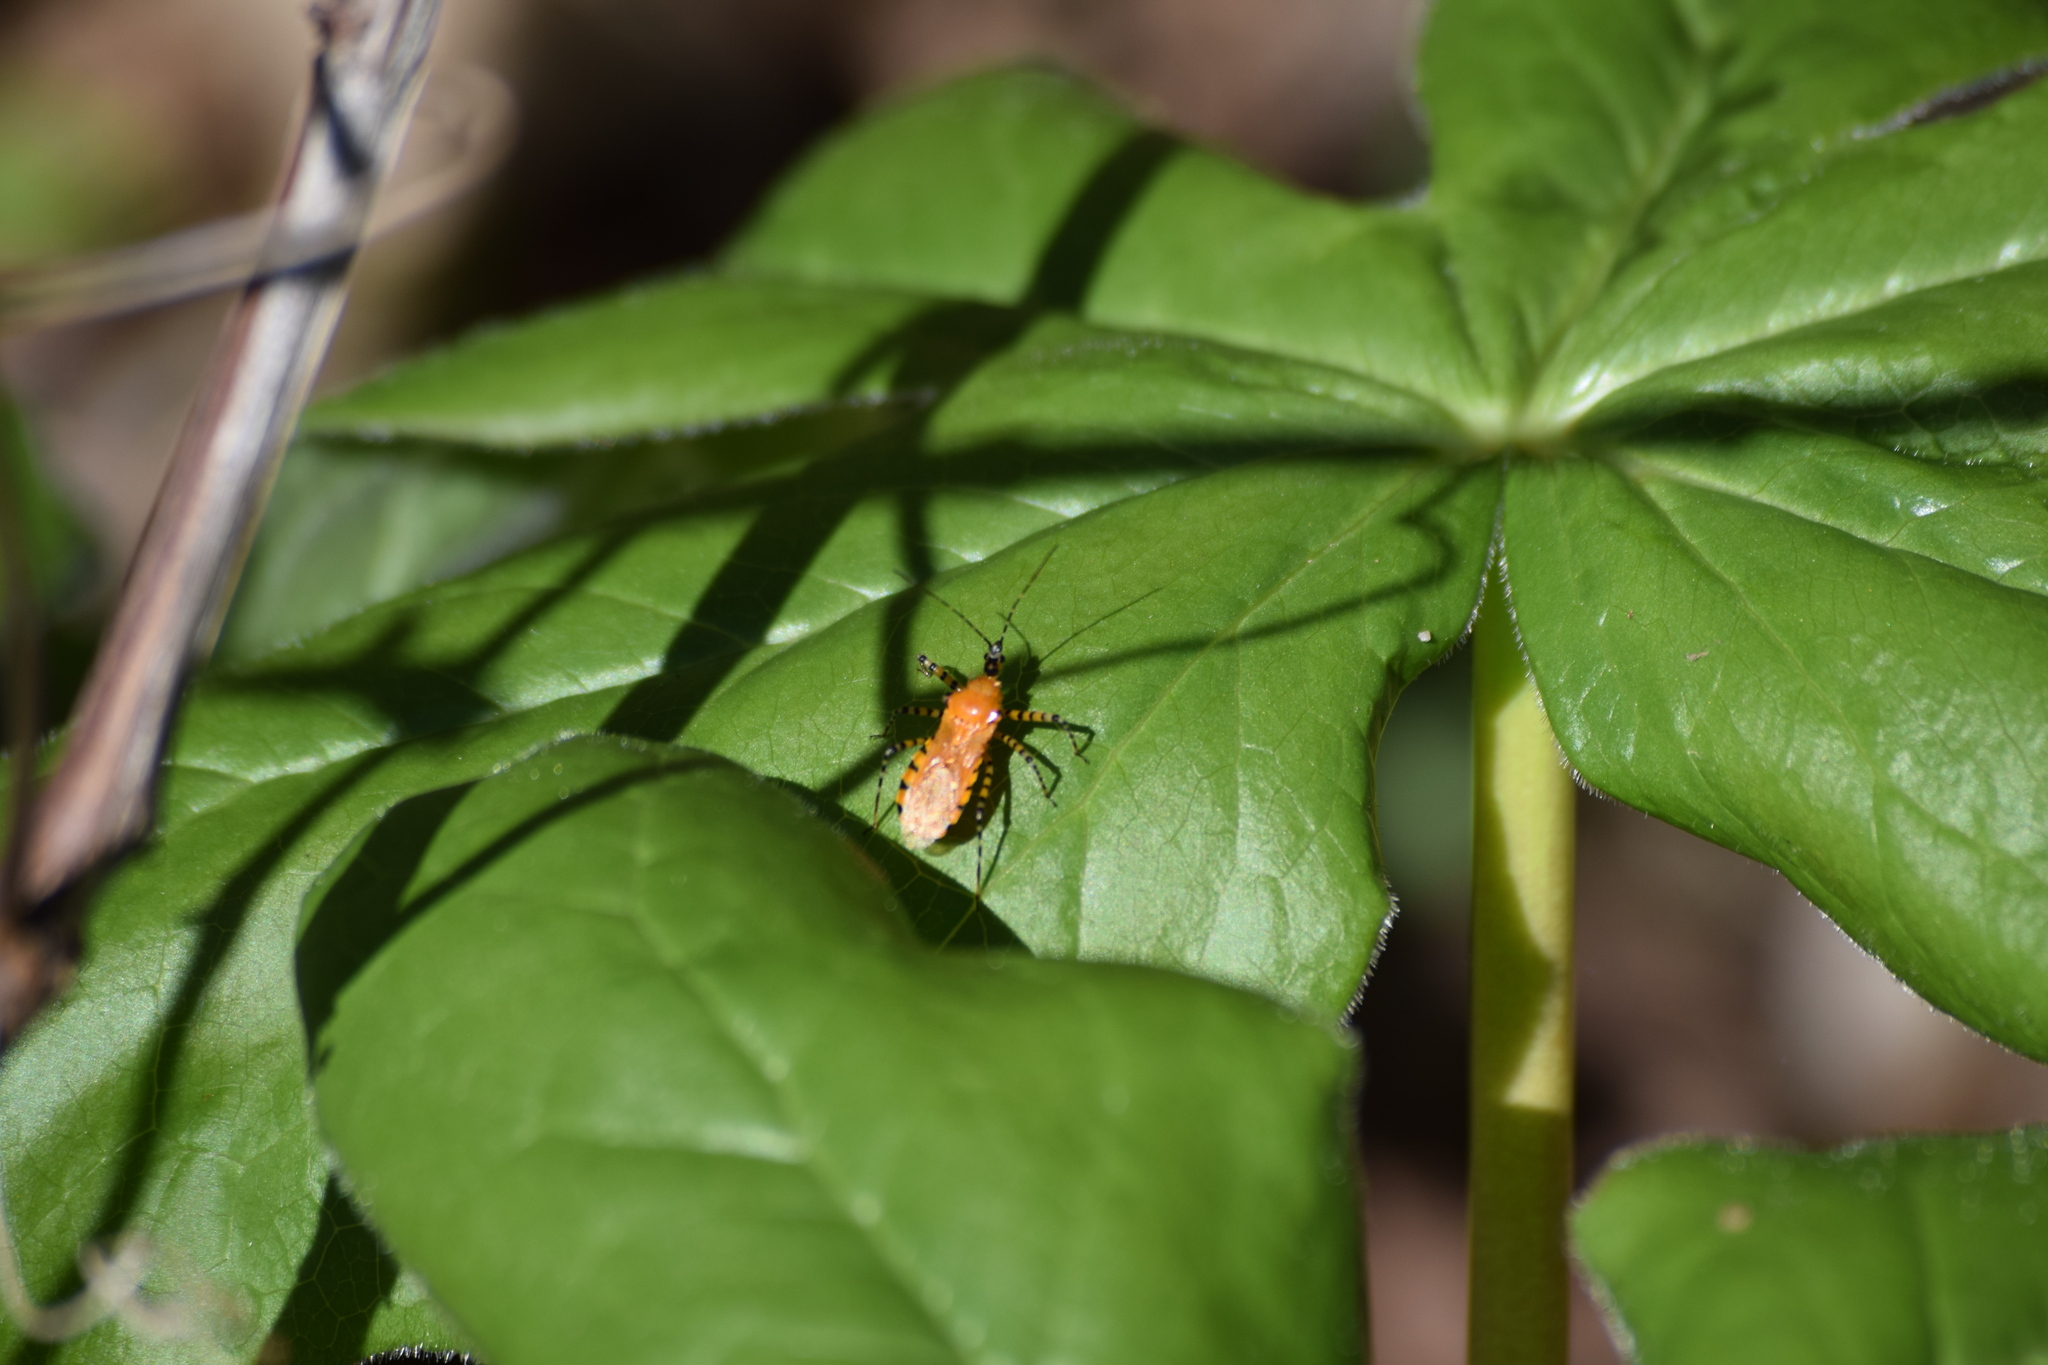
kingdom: Animalia
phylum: Arthropoda
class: Insecta
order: Hemiptera
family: Reduviidae
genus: Pselliopus
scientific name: Pselliopus barberi
